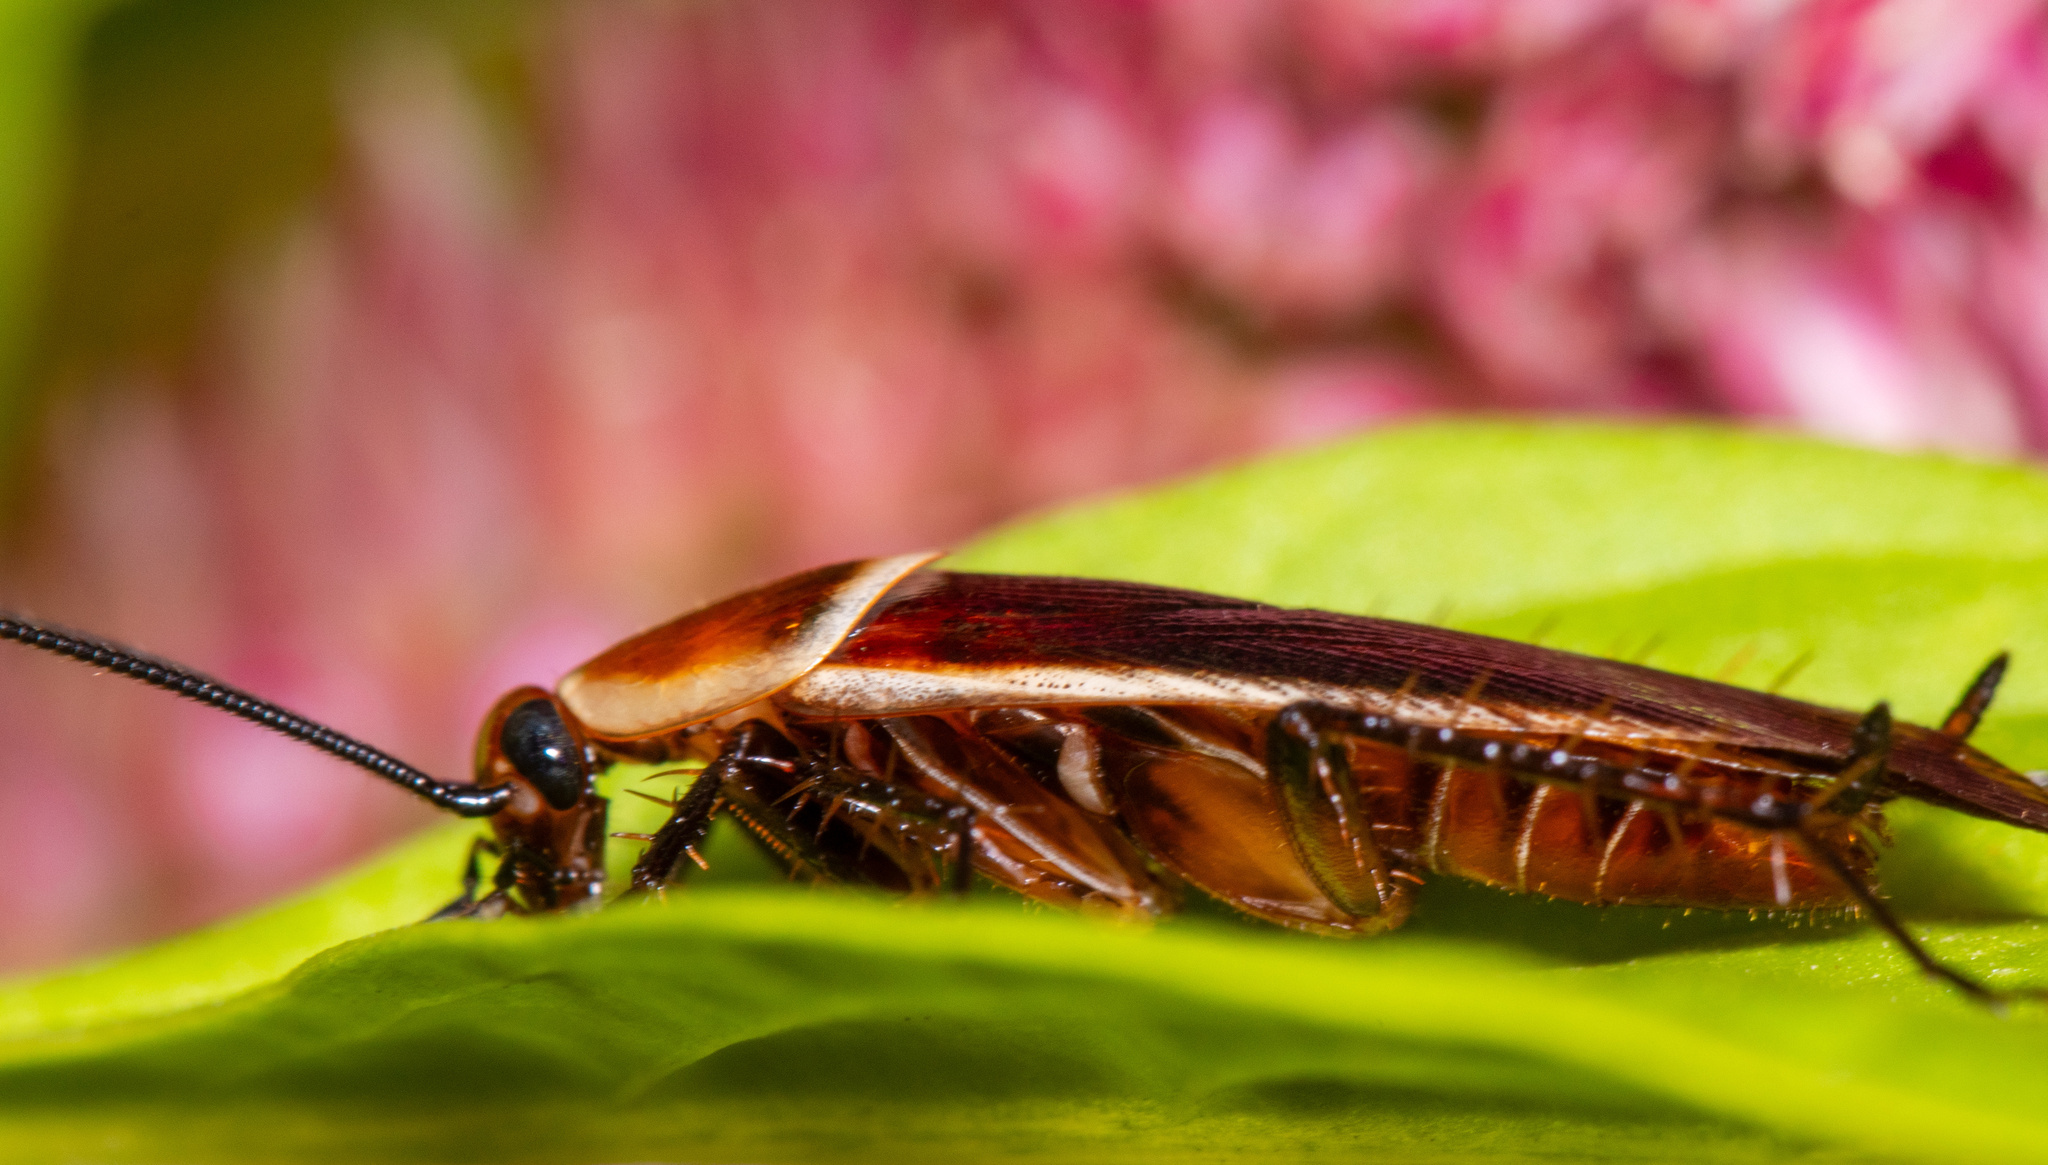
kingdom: Animalia
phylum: Arthropoda
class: Insecta
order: Blattodea
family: Ectobiidae
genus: Pseudomops
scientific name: Pseudomops septentrionalis
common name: Pale-bordered field cockroach
